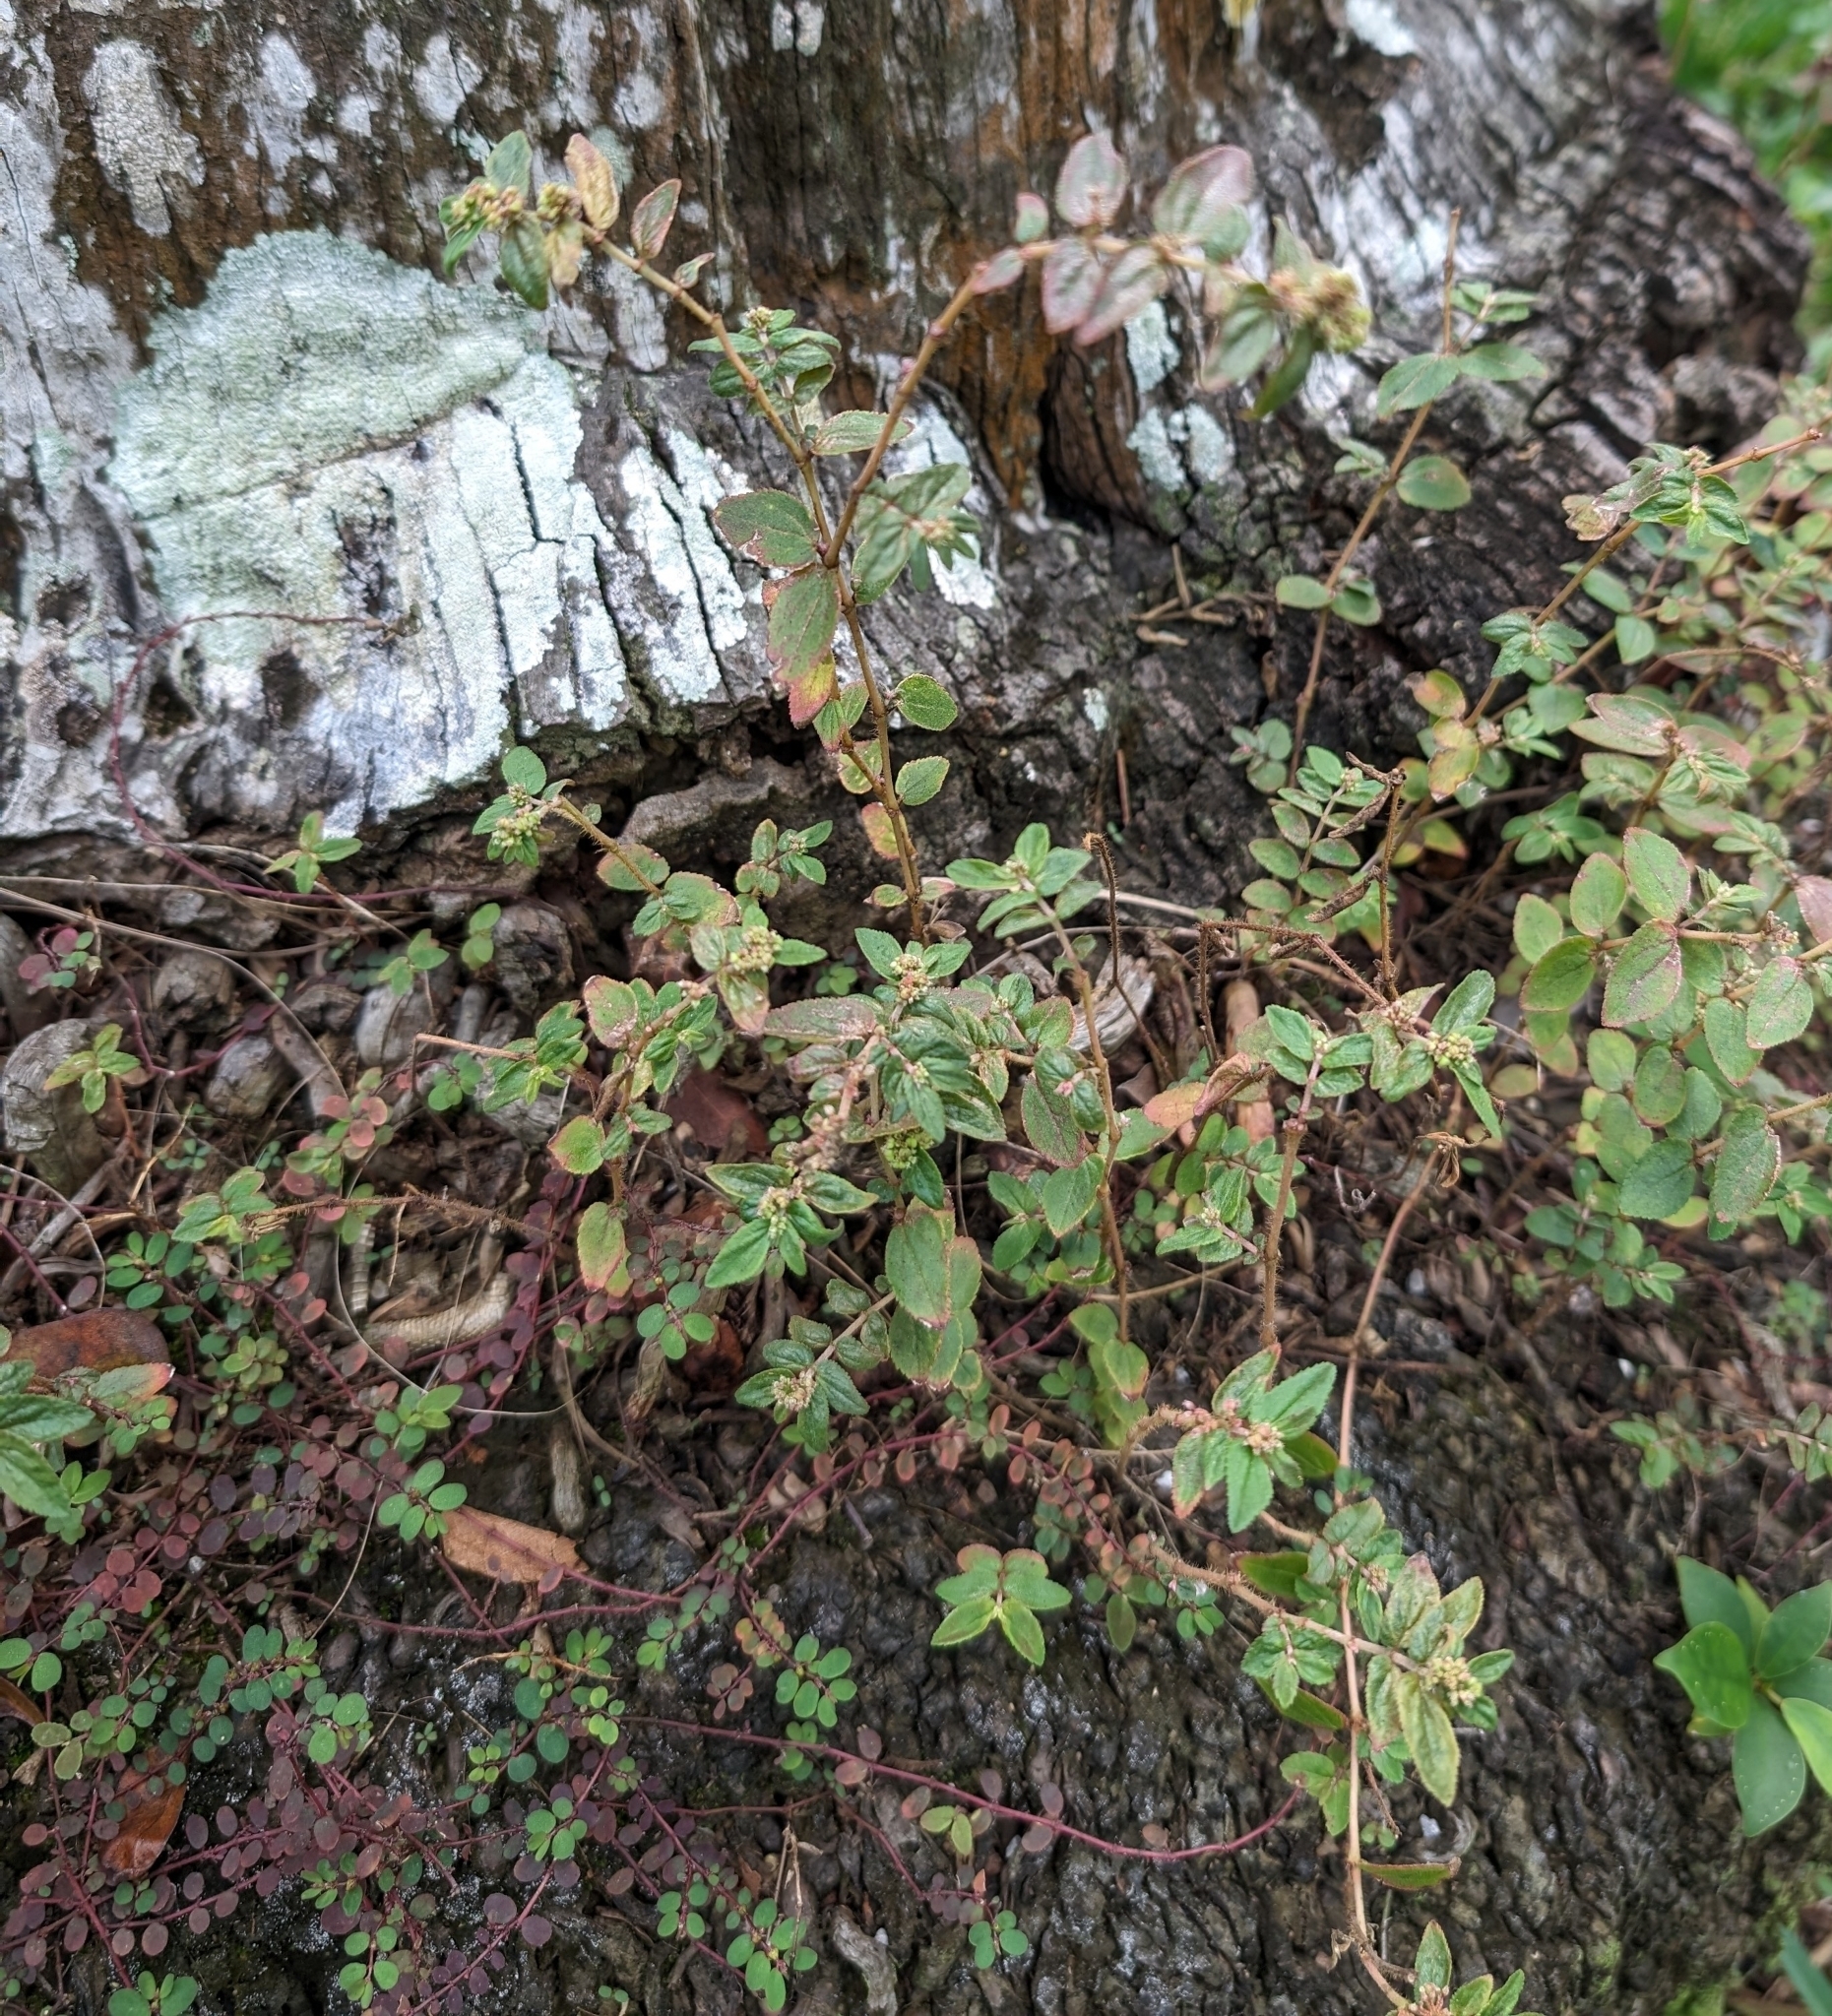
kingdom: Plantae
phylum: Tracheophyta
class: Magnoliopsida
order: Malpighiales
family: Euphorbiaceae
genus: Euphorbia
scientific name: Euphorbia hirta
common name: Pillpod sandmat
